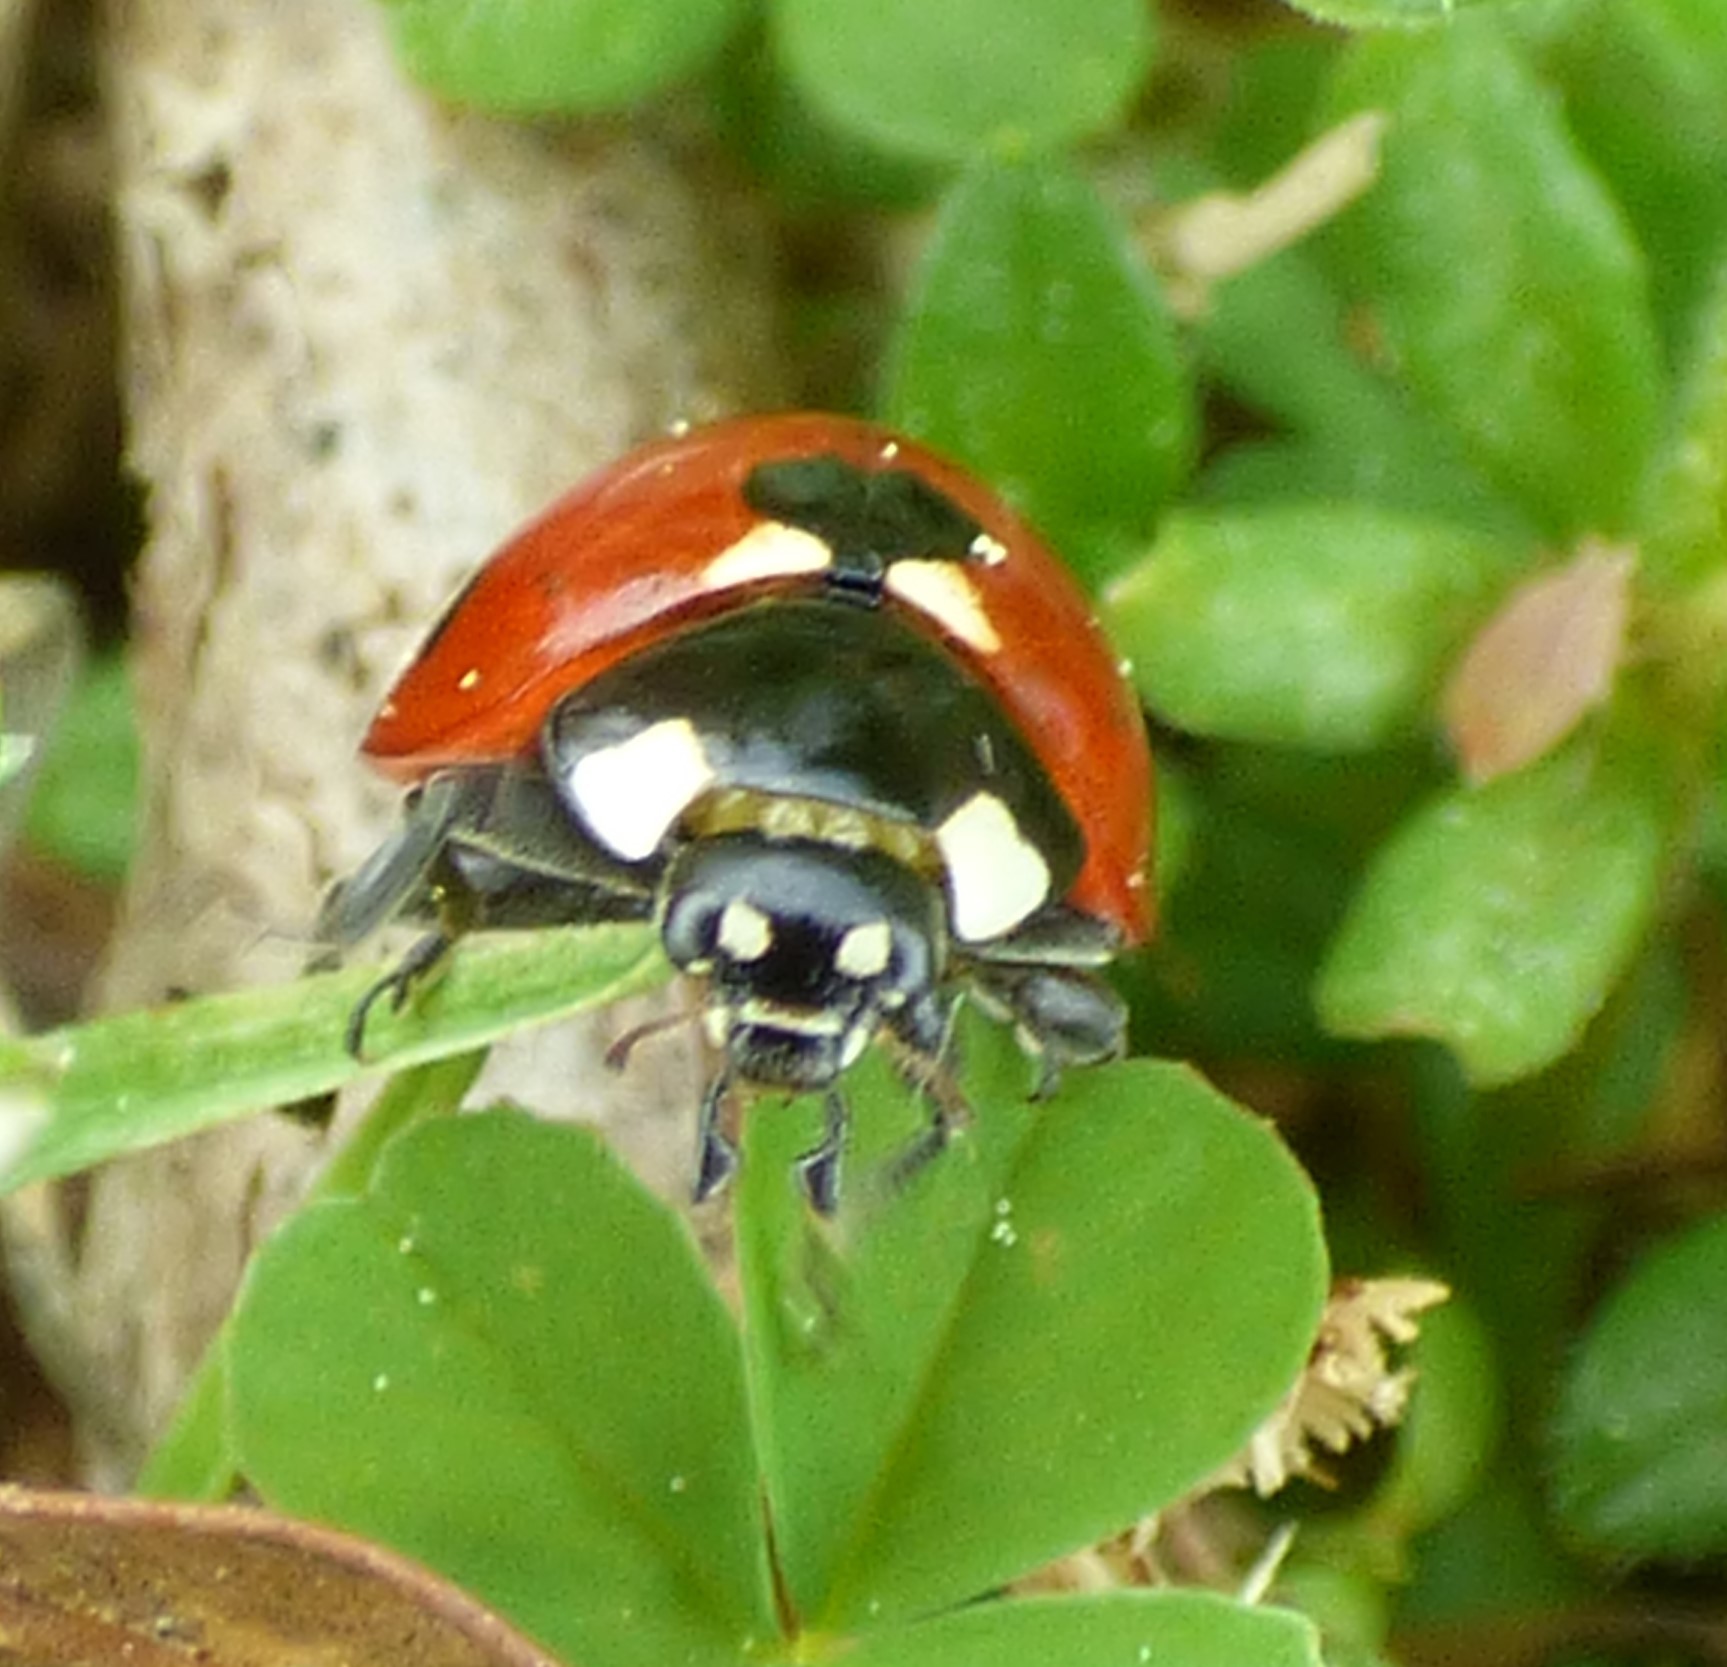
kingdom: Animalia
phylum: Arthropoda
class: Insecta
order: Coleoptera
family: Coccinellidae
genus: Coccinella
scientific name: Coccinella septempunctata
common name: Sevenspotted lady beetle
